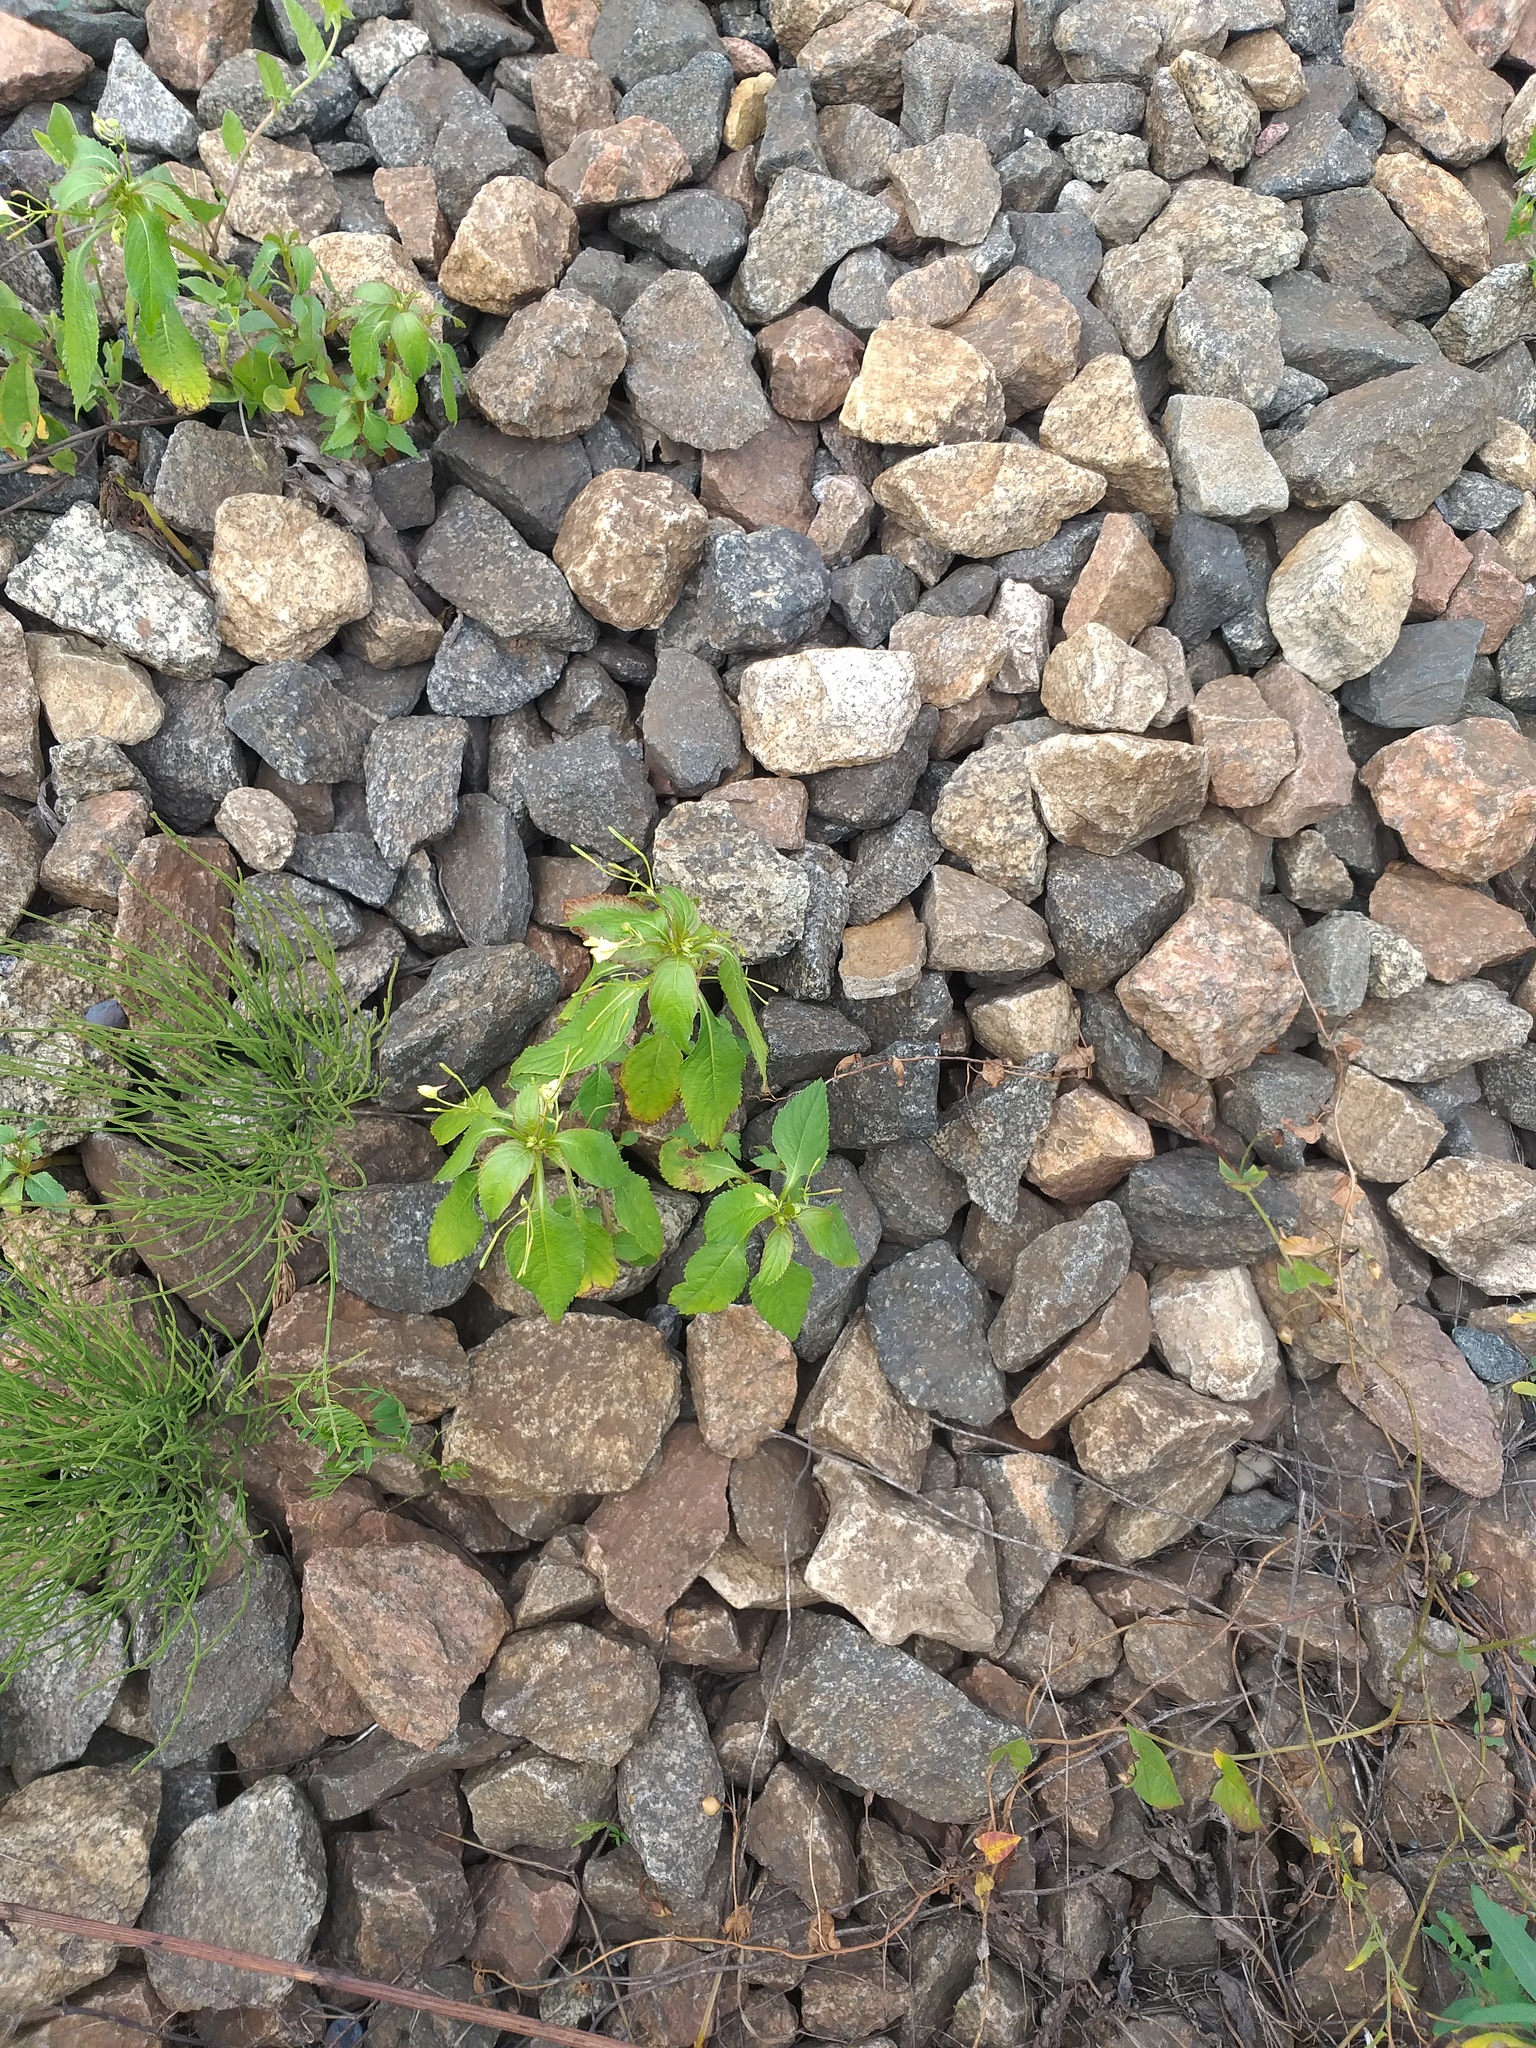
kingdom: Plantae
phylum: Tracheophyta
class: Magnoliopsida
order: Ericales
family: Balsaminaceae
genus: Impatiens
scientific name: Impatiens parviflora
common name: Small balsam
